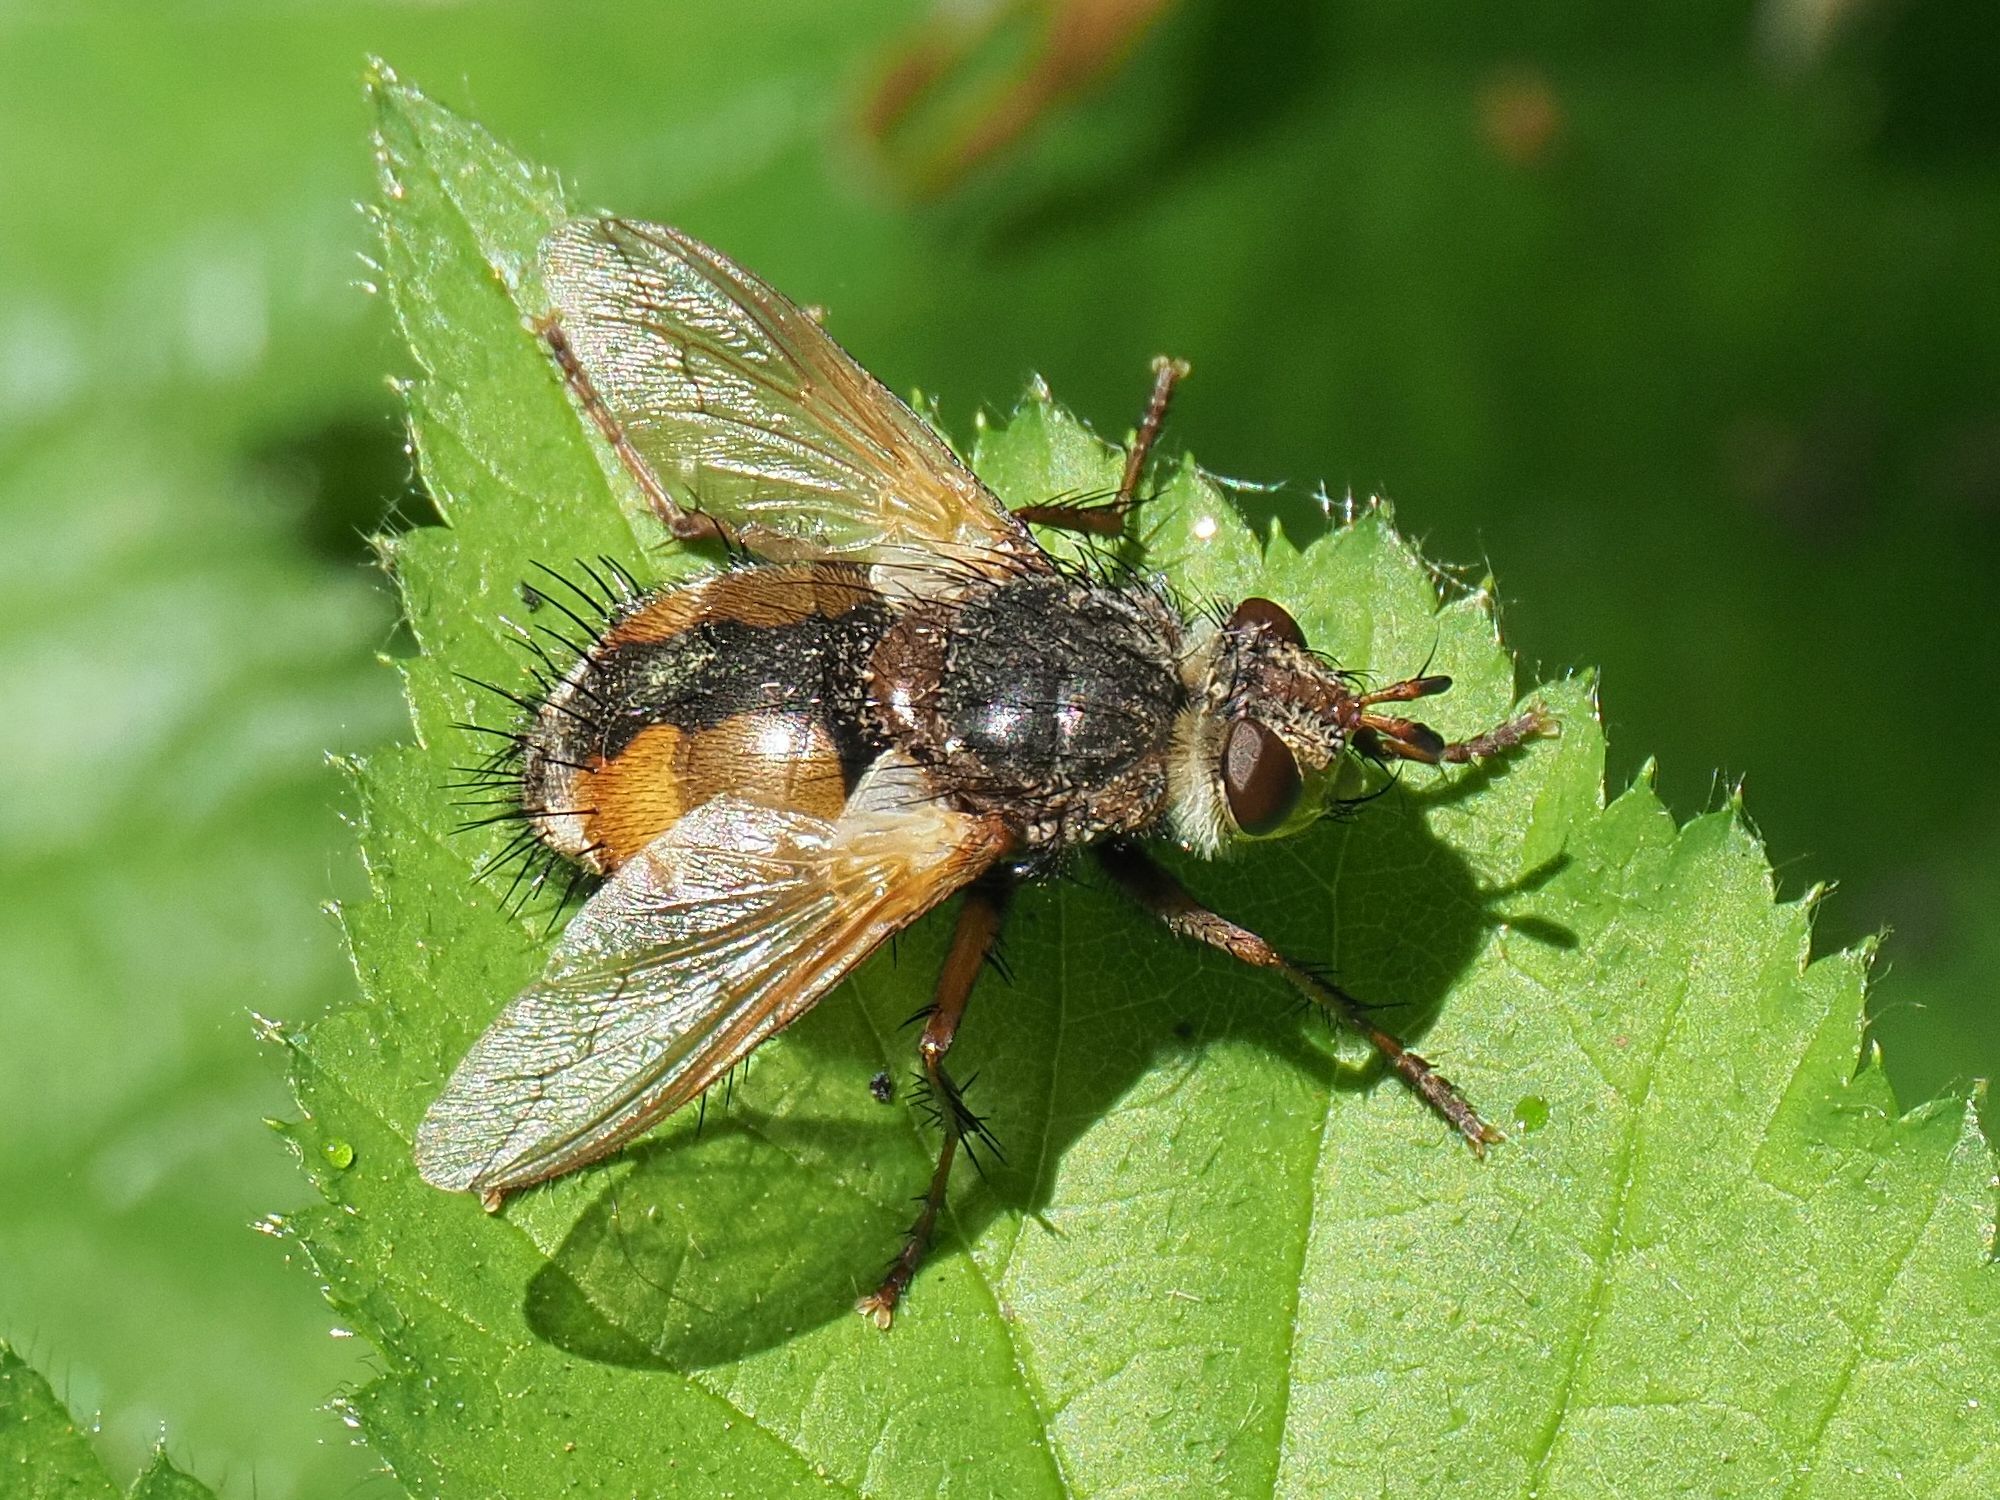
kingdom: Animalia
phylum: Arthropoda
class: Insecta
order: Diptera
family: Tachinidae
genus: Tachina
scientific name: Tachina fera
